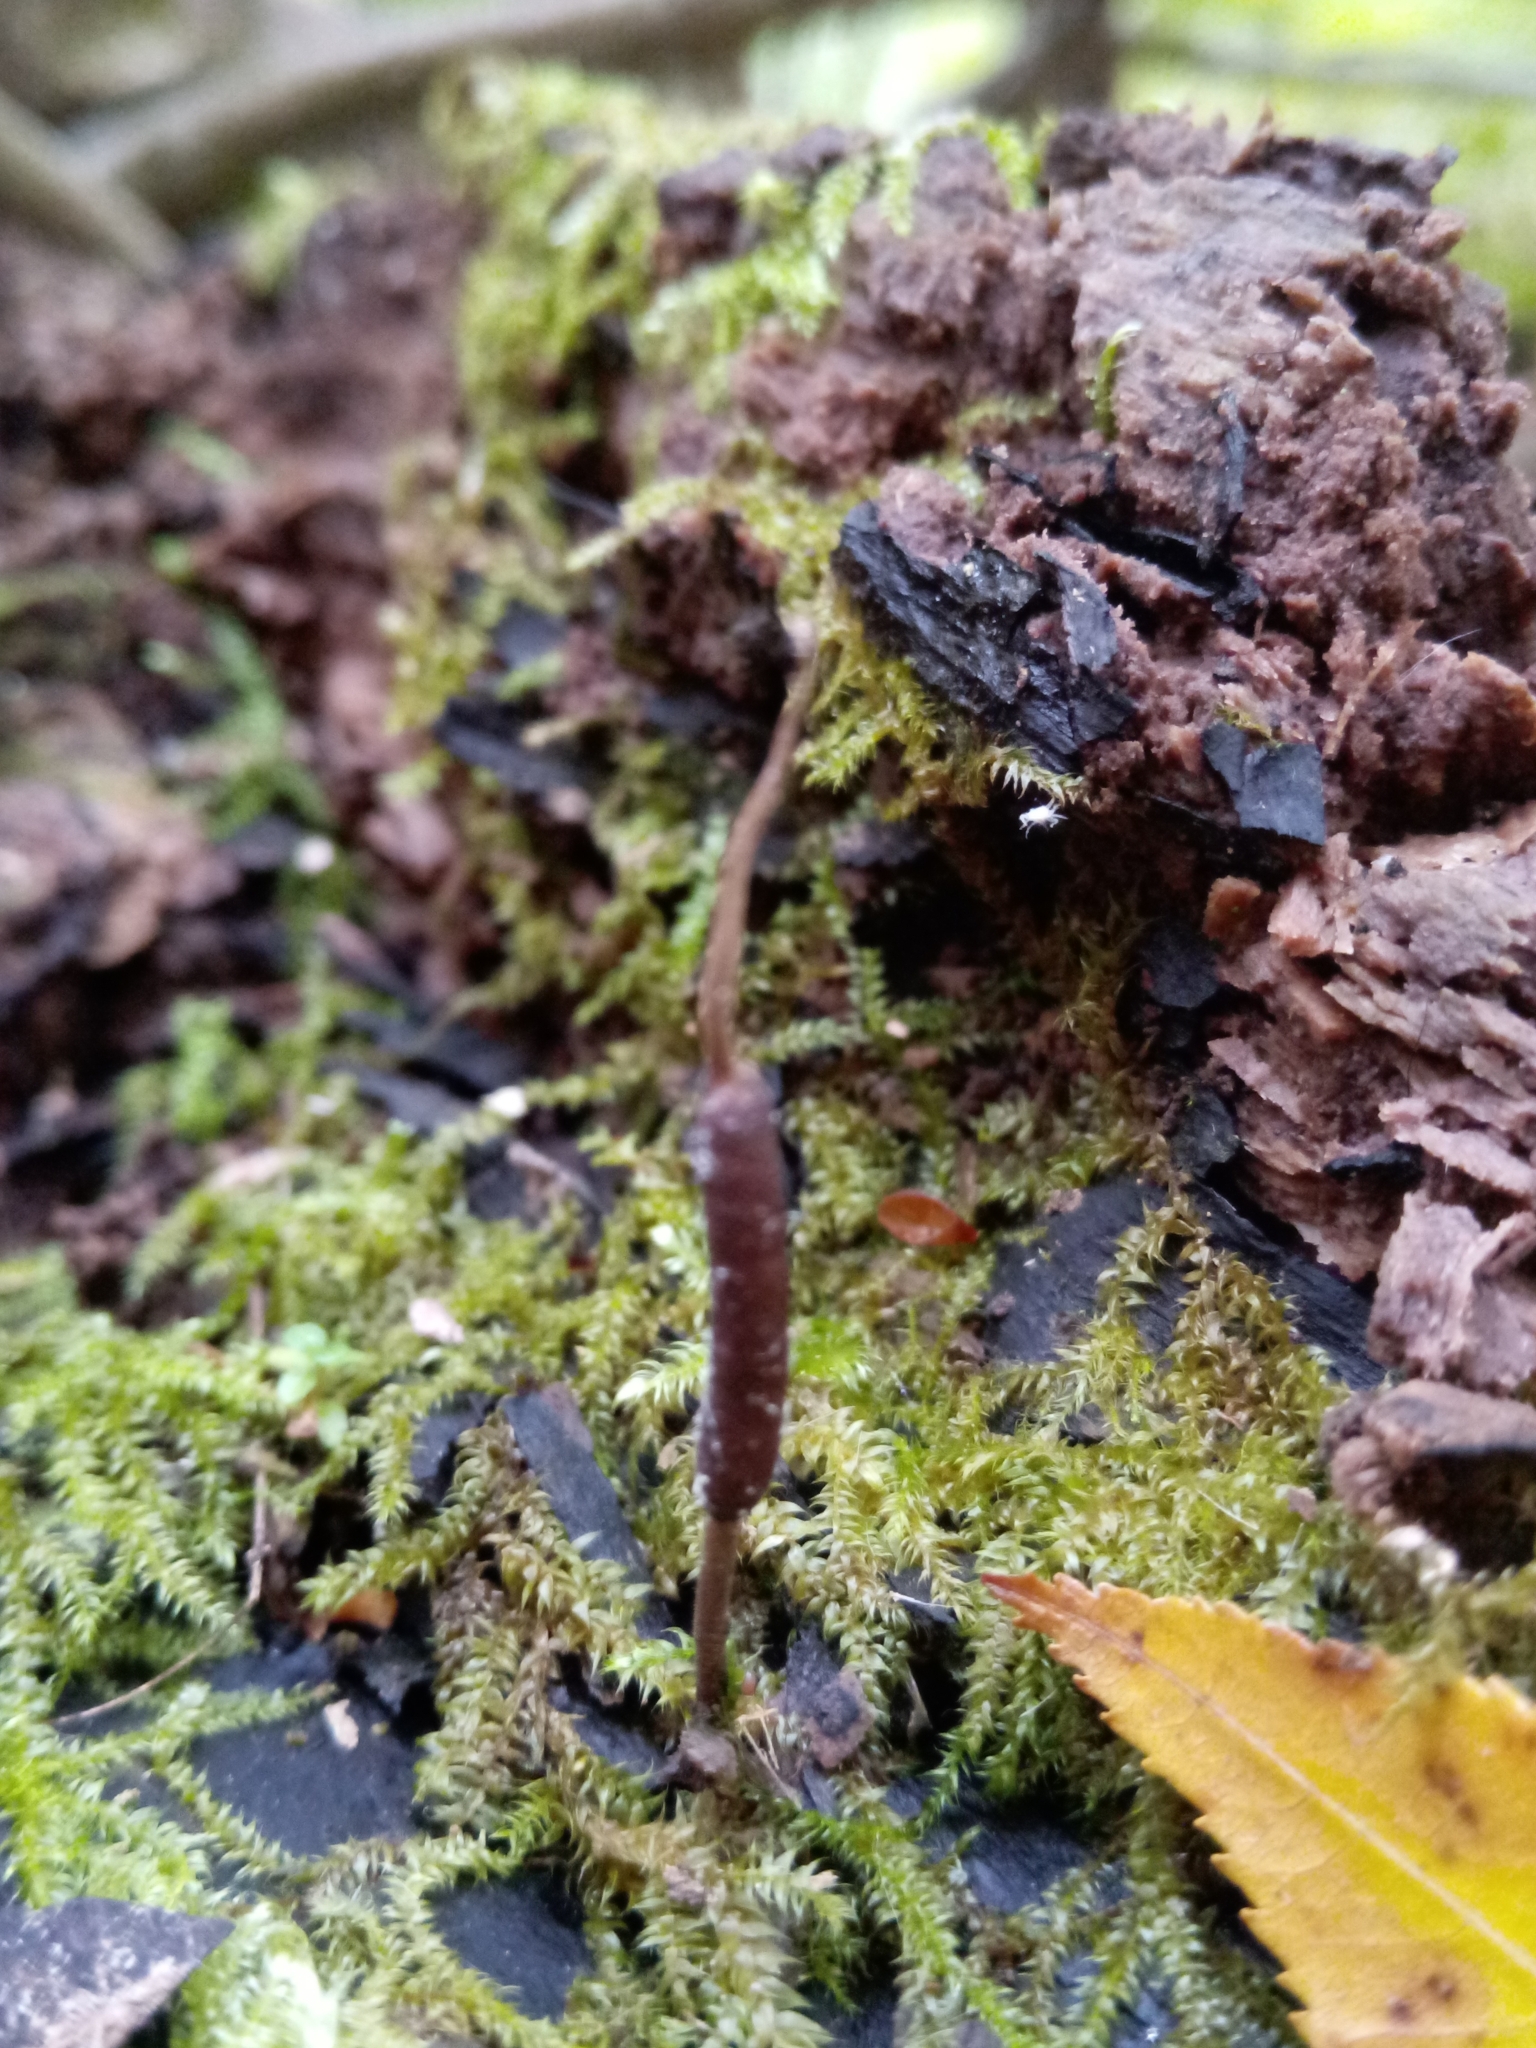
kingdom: Fungi
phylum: Ascomycota
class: Sordariomycetes
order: Hypocreales
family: Ophiocordycipitaceae
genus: Ophiocordyceps
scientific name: Ophiocordyceps stylophora
